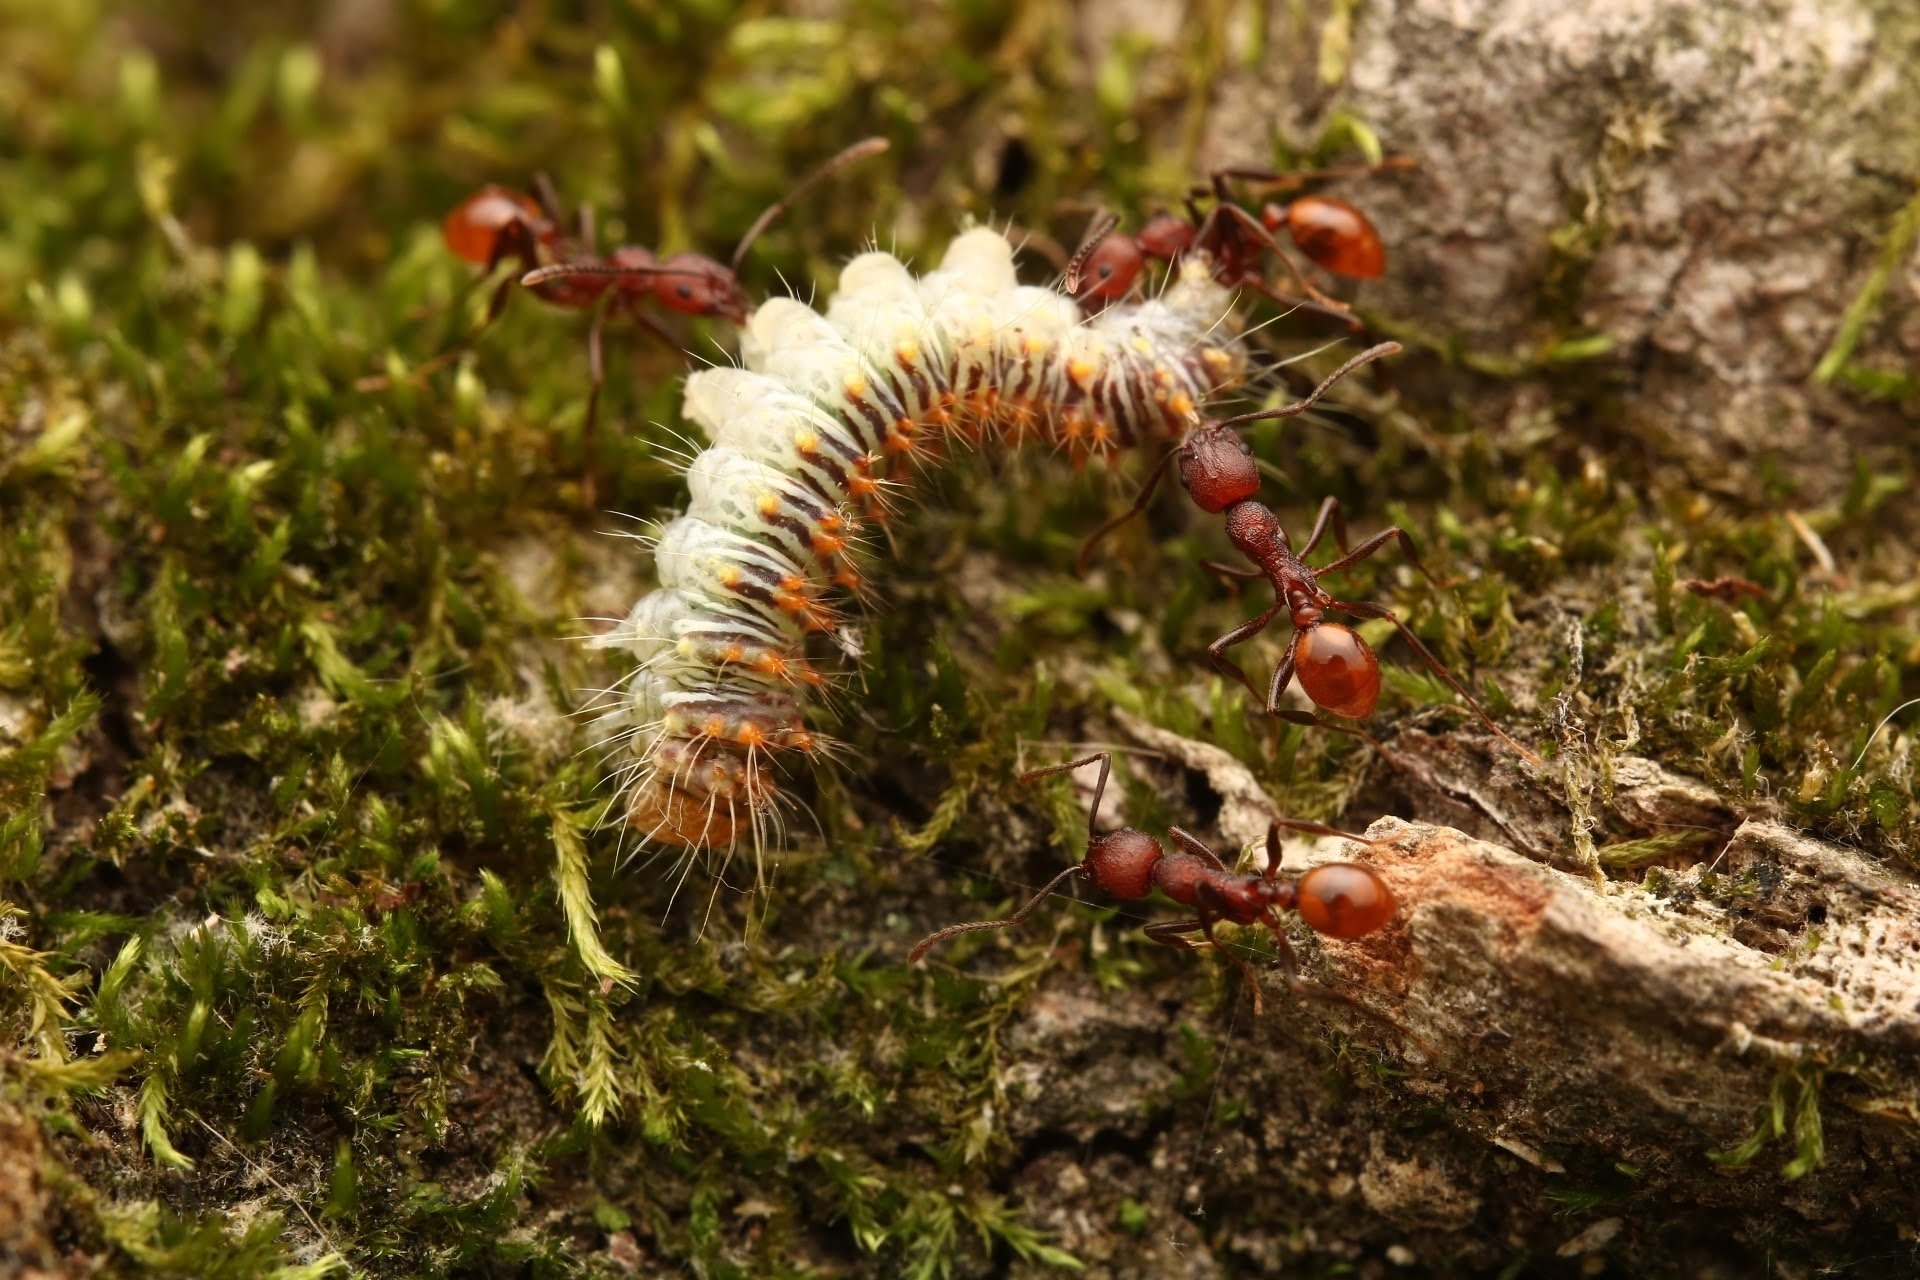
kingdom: Animalia
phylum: Arthropoda
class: Insecta
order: Hymenoptera
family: Formicidae
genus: Aphaenogaster
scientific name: Aphaenogaster tennesseensis
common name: Tennessee thread-waisted ant
